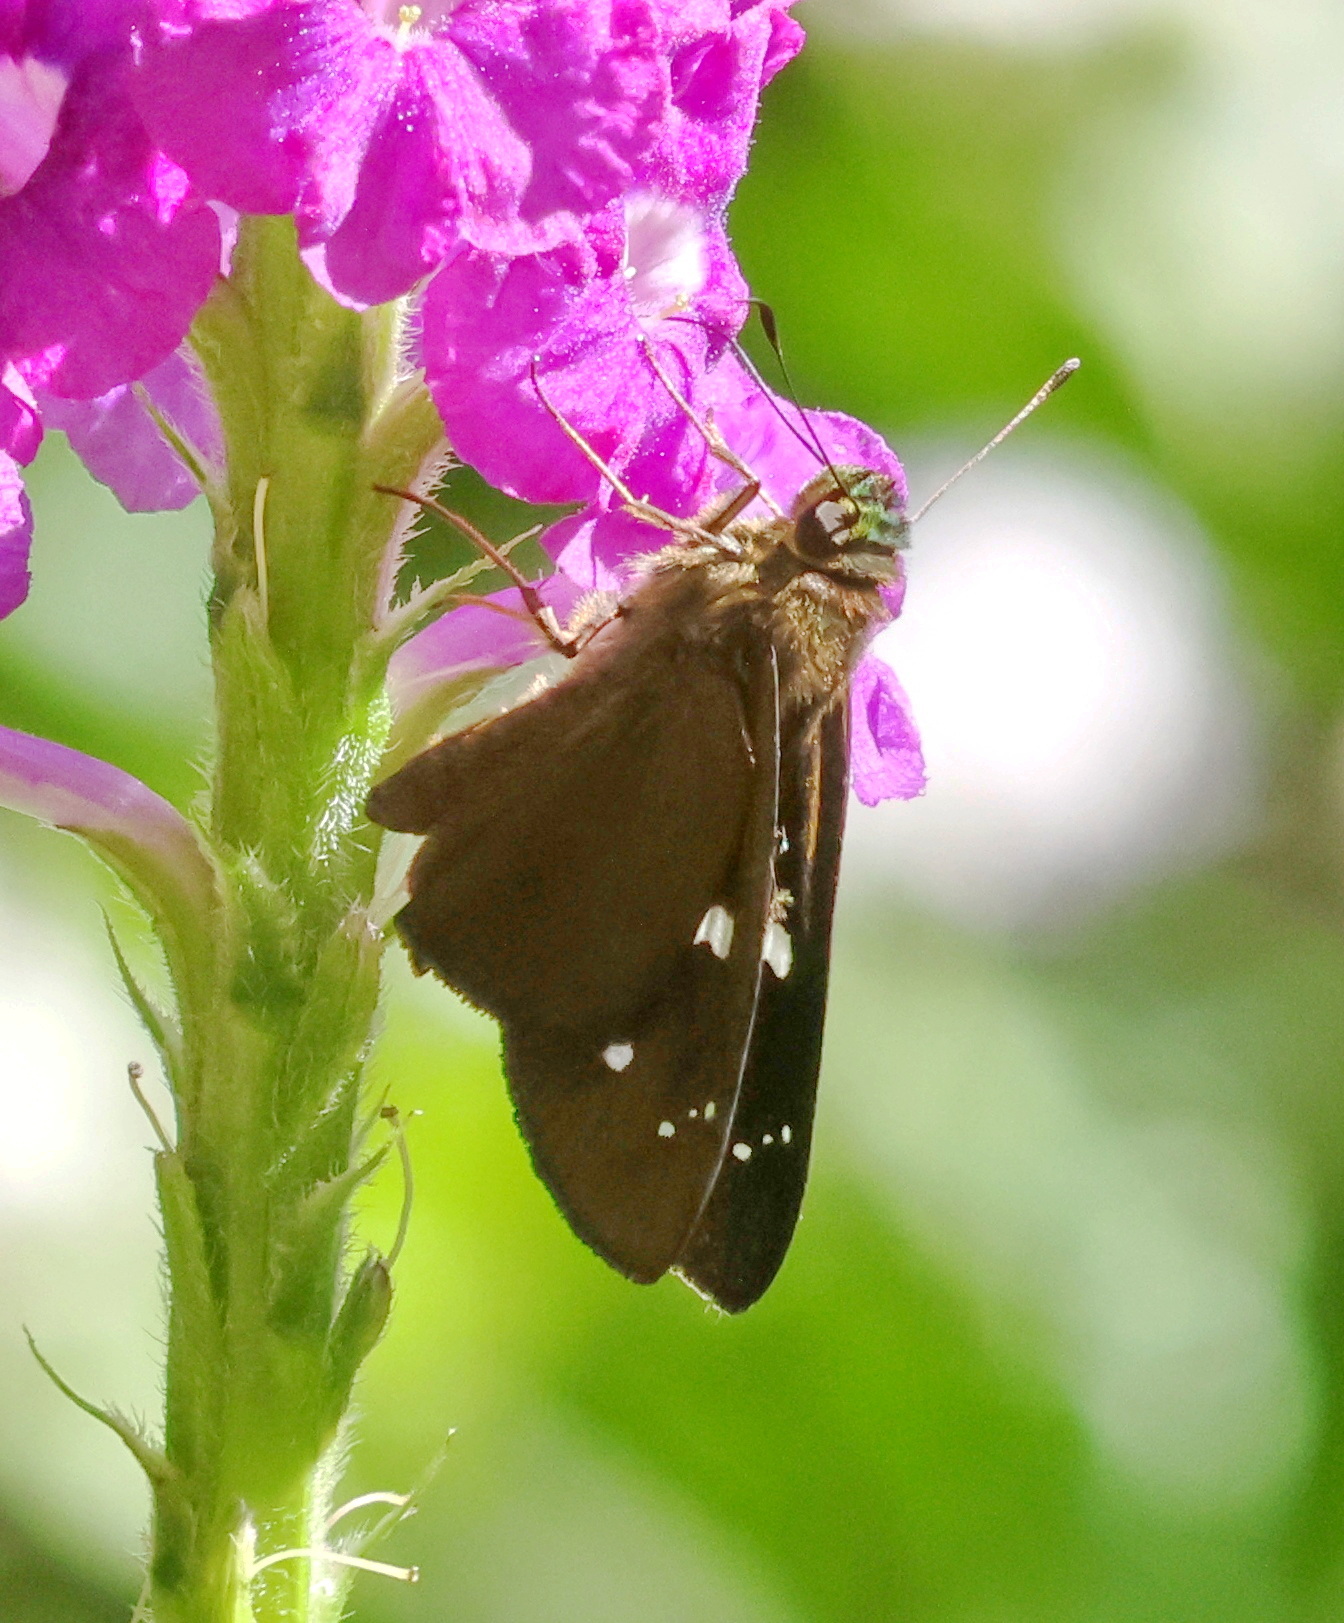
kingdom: Animalia
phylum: Arthropoda
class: Insecta
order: Lepidoptera
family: Hesperiidae
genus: Orthos
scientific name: Orthos gabina
